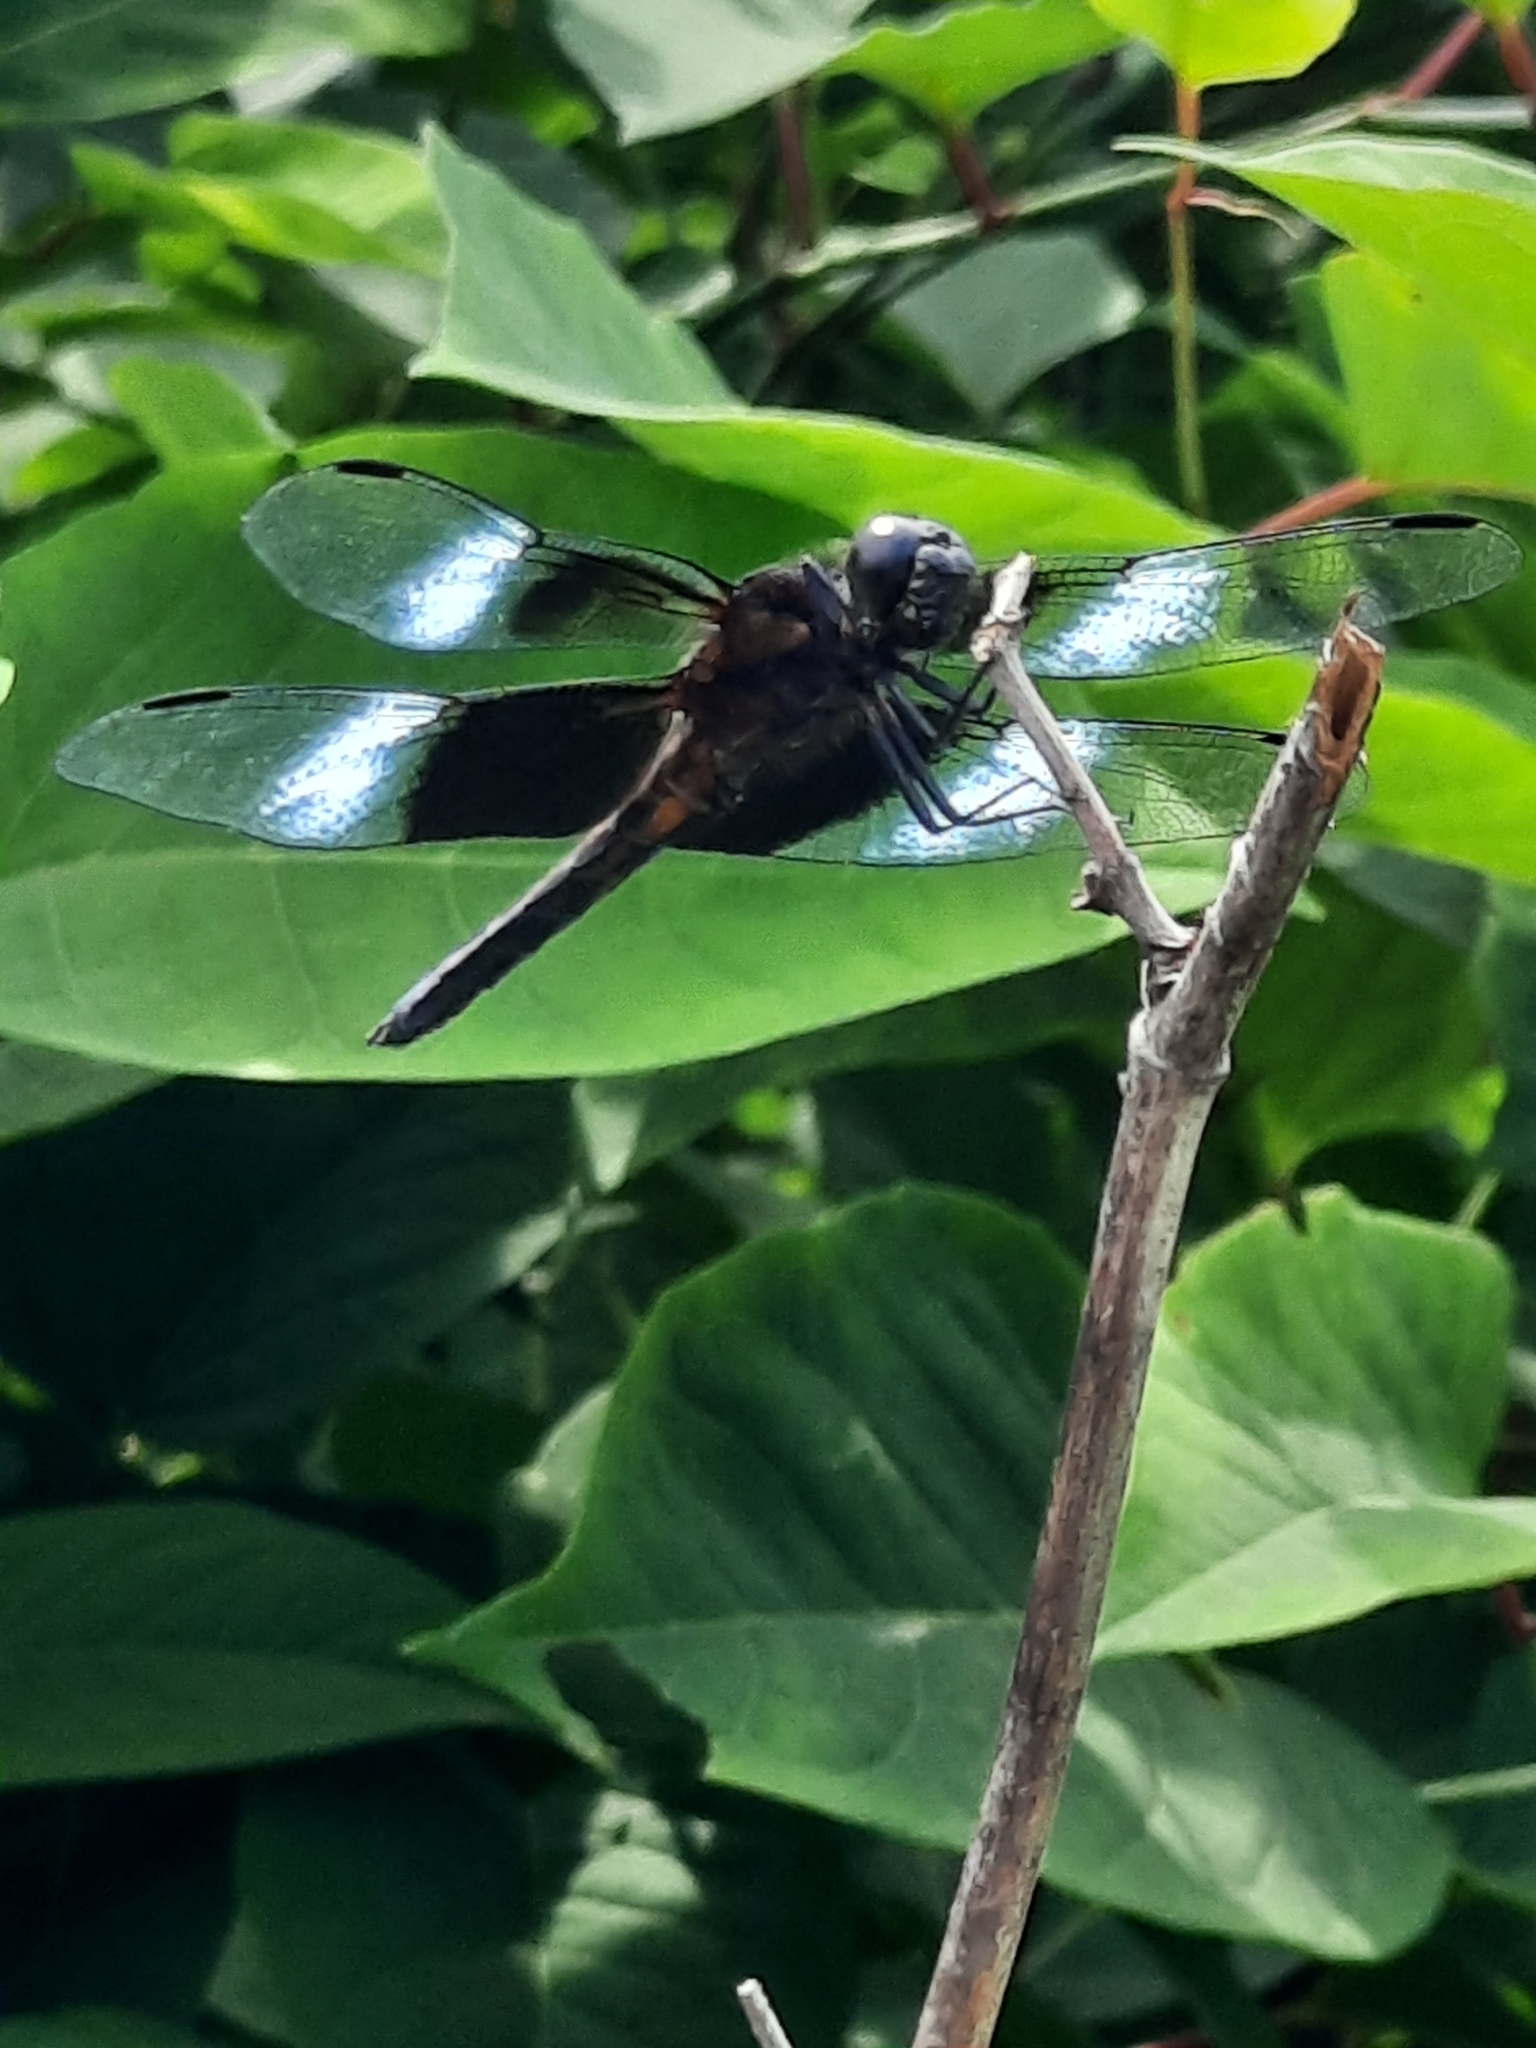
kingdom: Animalia
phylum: Arthropoda
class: Insecta
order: Odonata
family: Libellulidae
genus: Libellula
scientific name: Libellula luctuosa
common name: Widow skimmer
